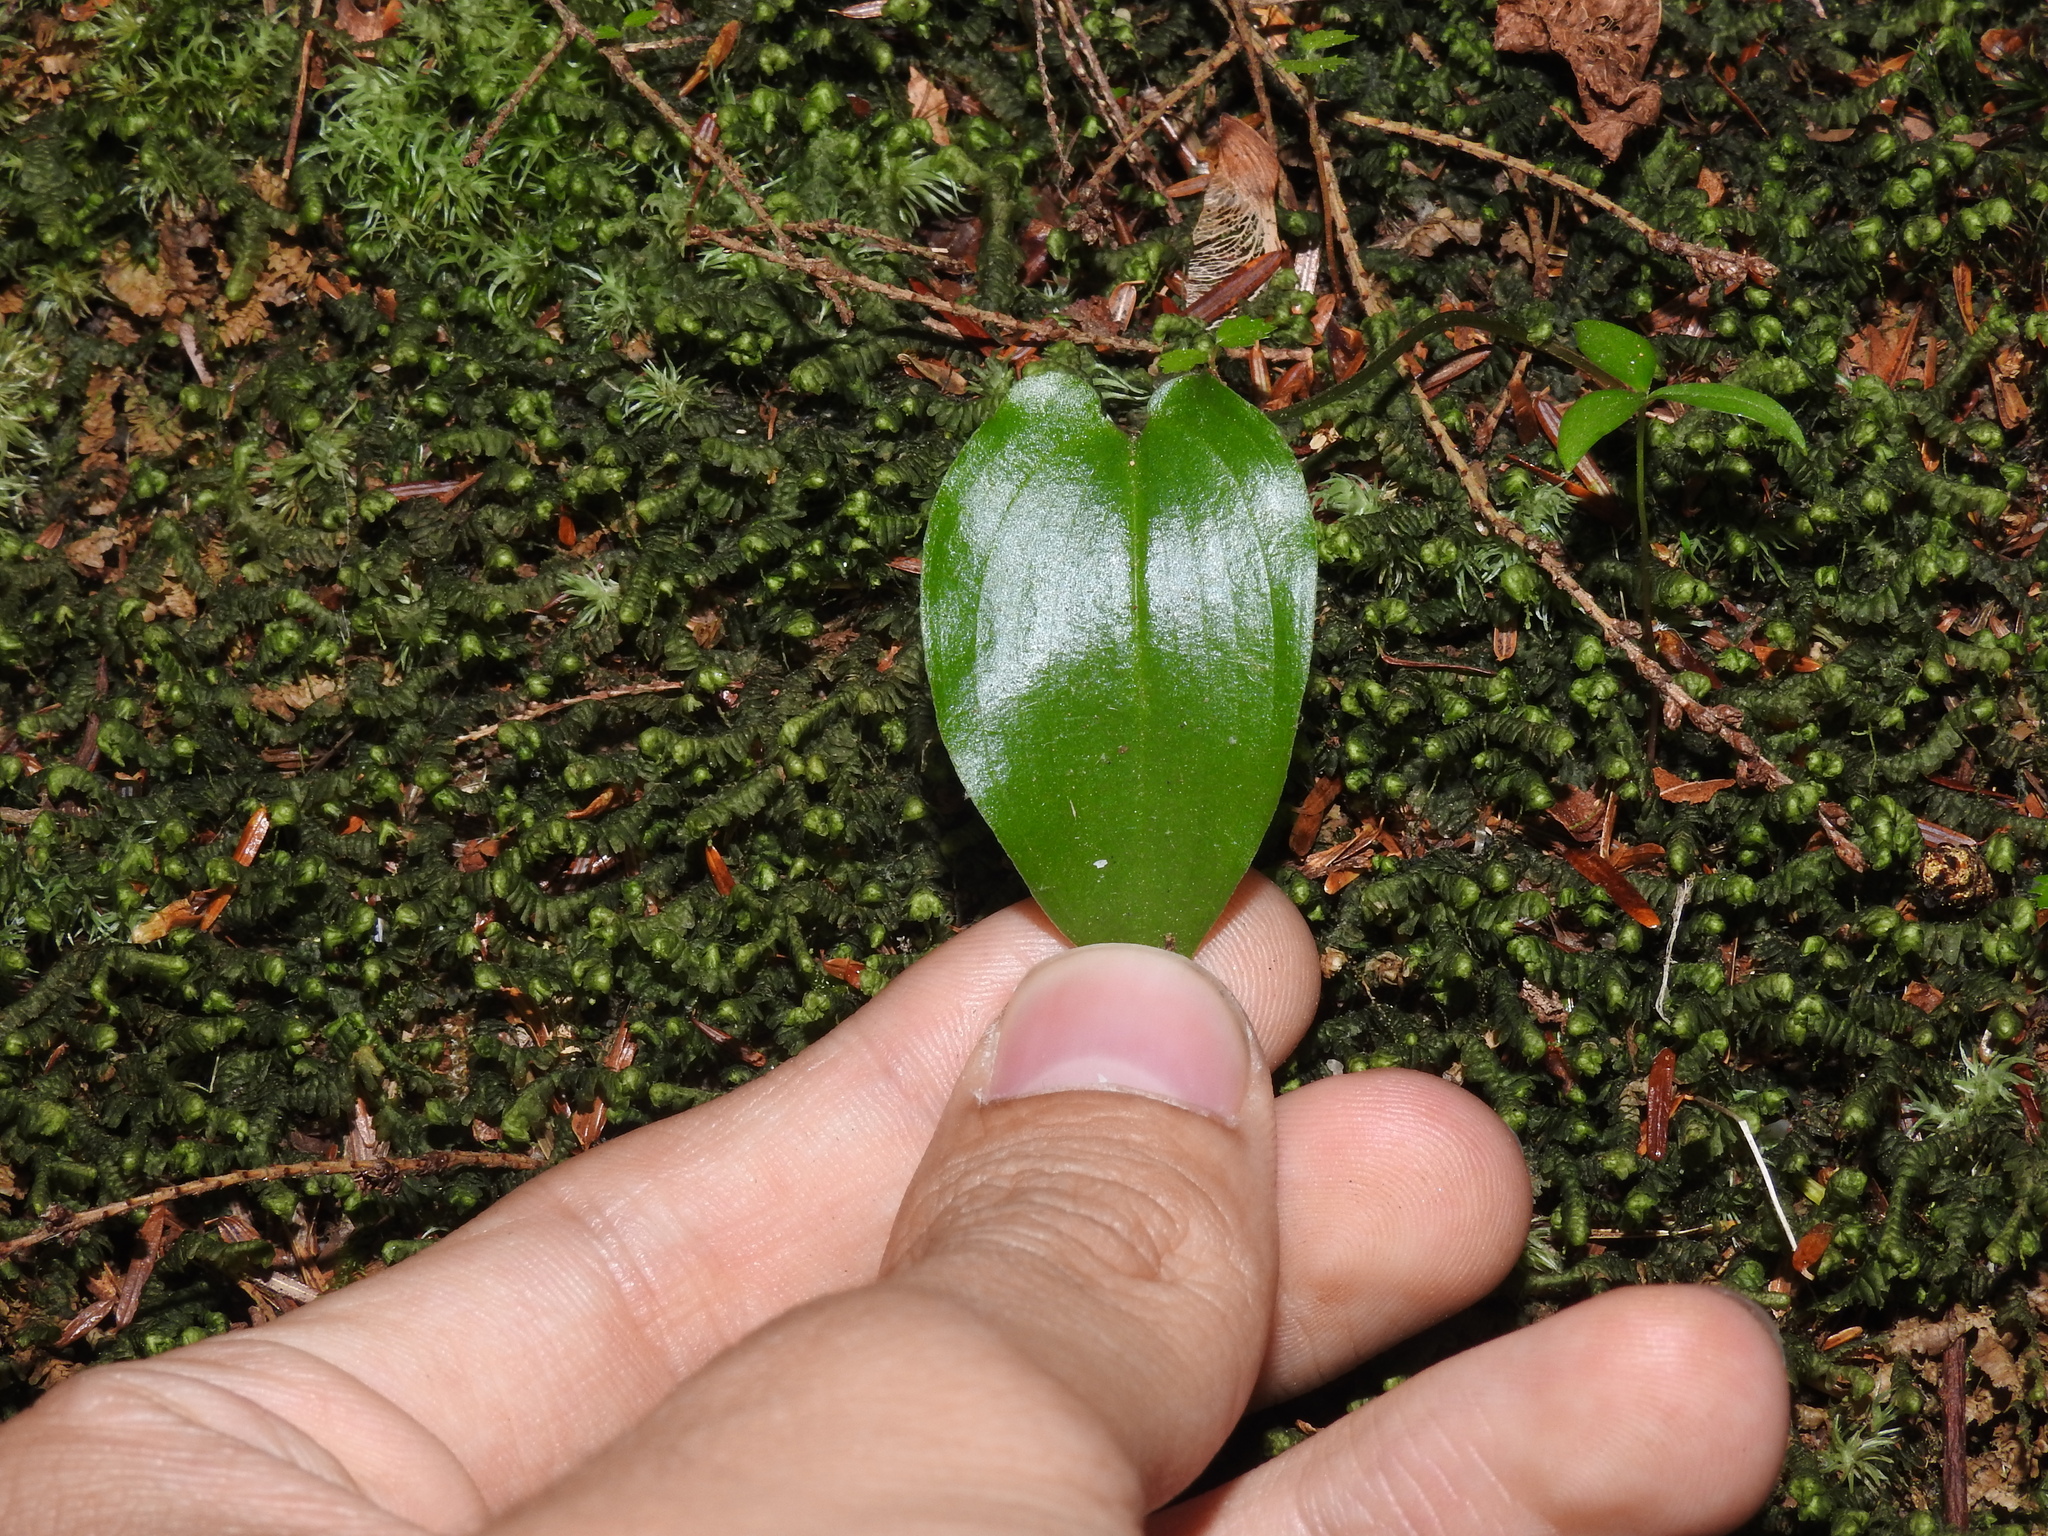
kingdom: Plantae
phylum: Tracheophyta
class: Liliopsida
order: Asparagales
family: Asparagaceae
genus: Maianthemum
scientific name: Maianthemum canadense
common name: False lily-of-the-valley
